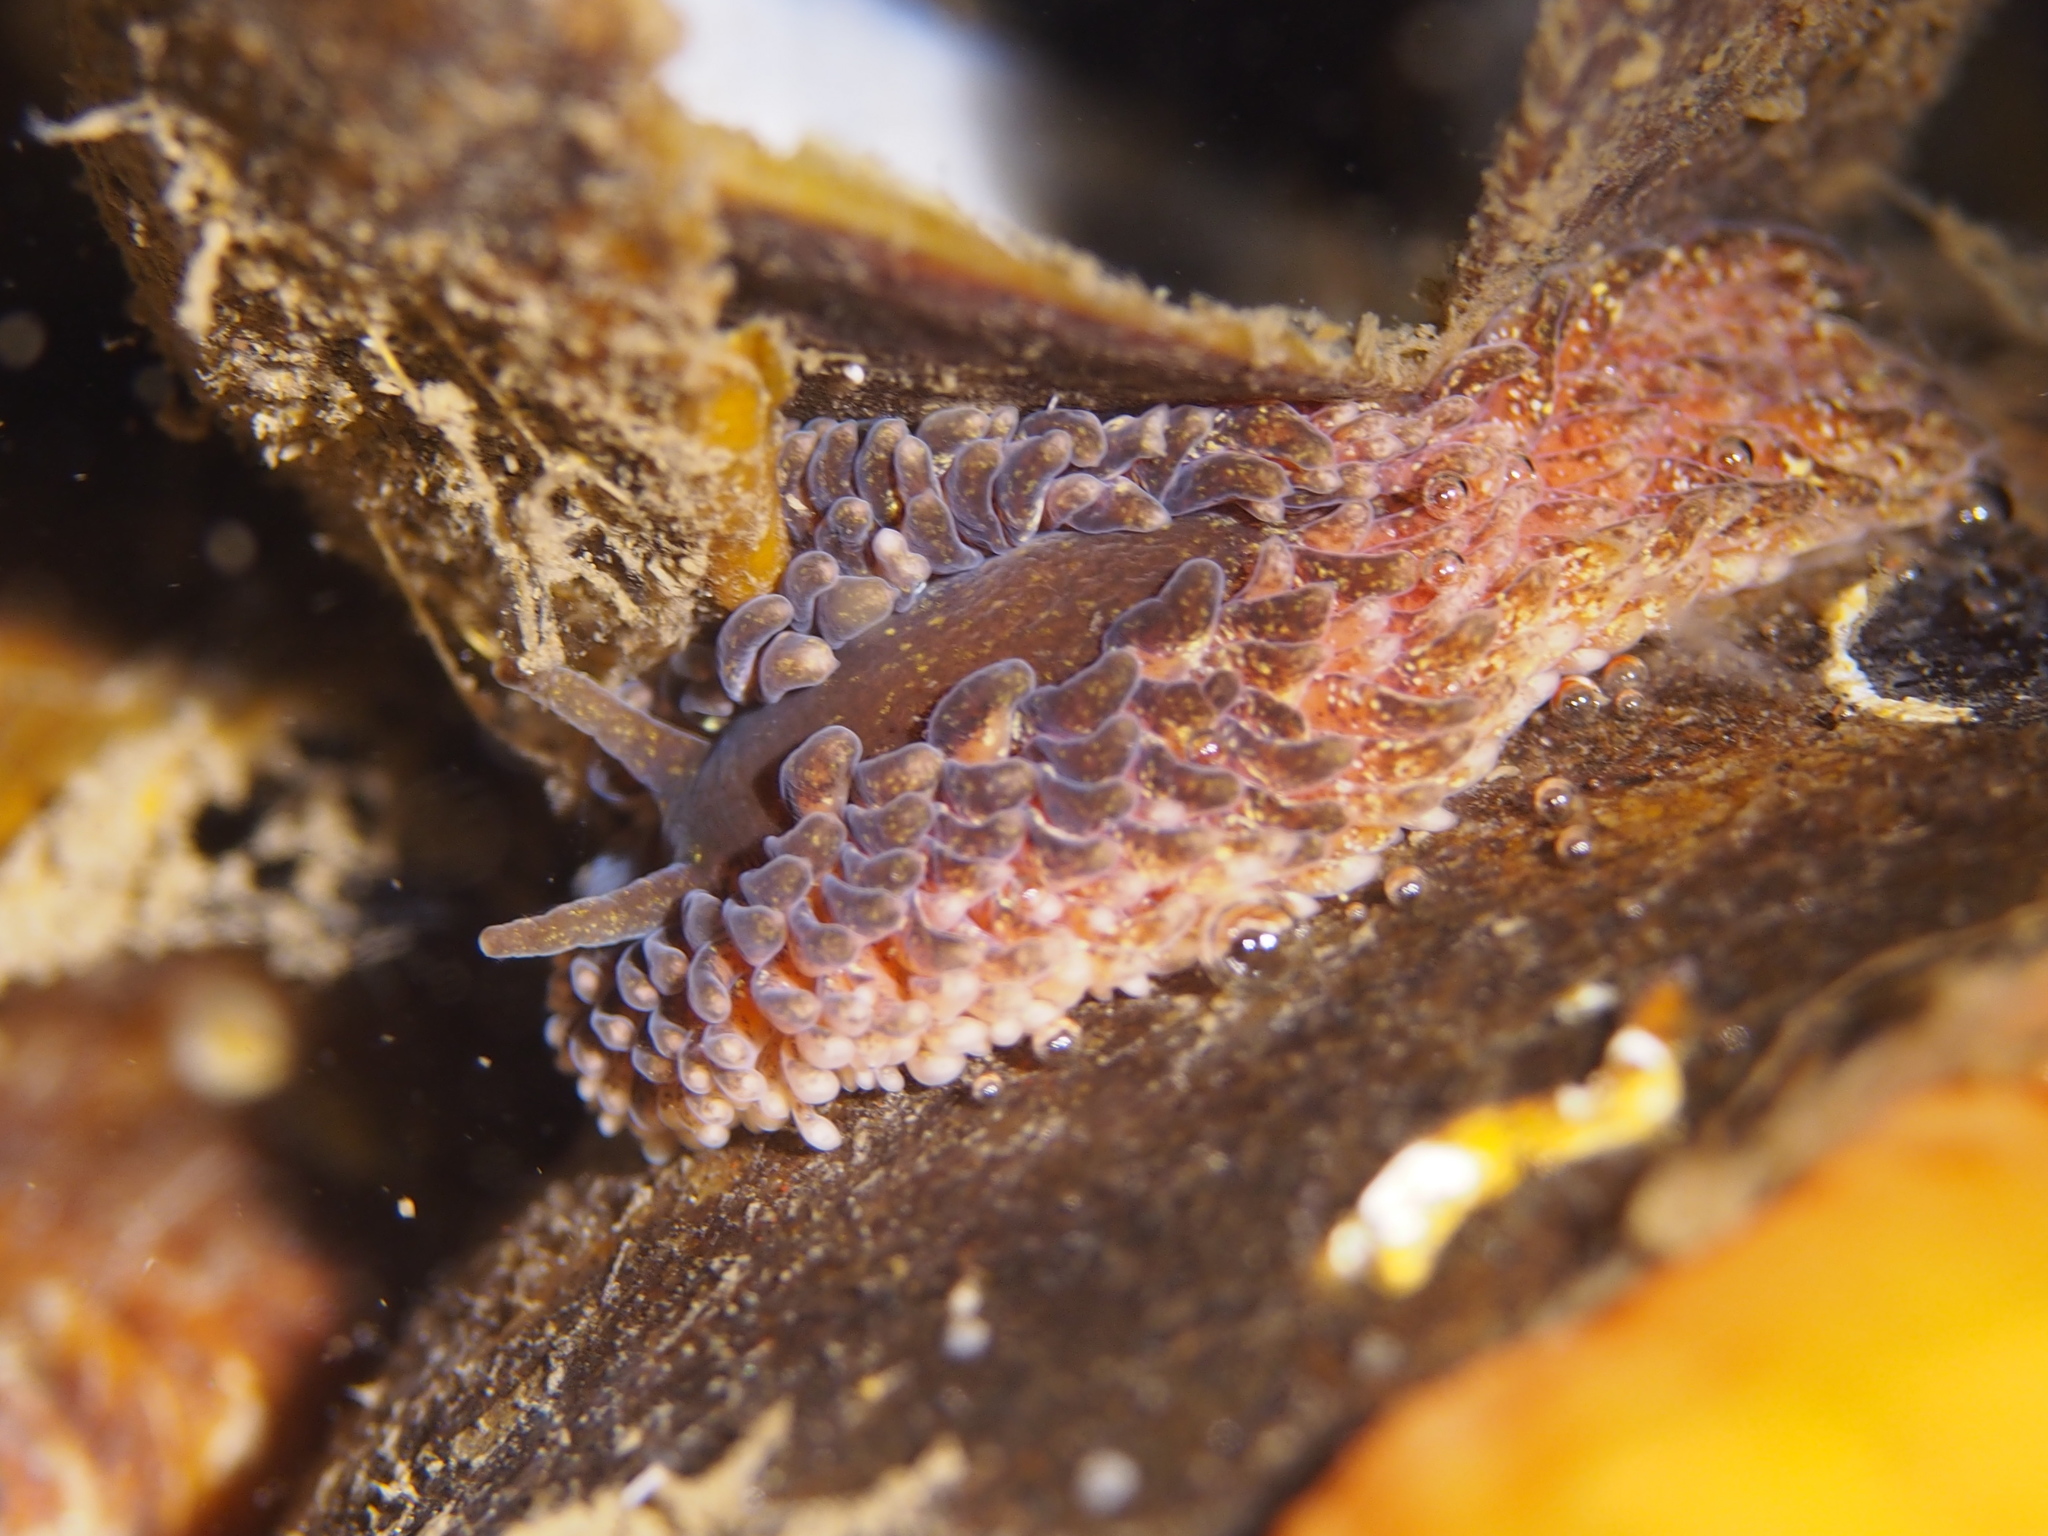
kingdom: Animalia
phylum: Mollusca
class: Gastropoda
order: Nudibranchia
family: Aeolidiidae
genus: Aeolidia
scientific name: Aeolidia papillosa
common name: Common grey sea slug
